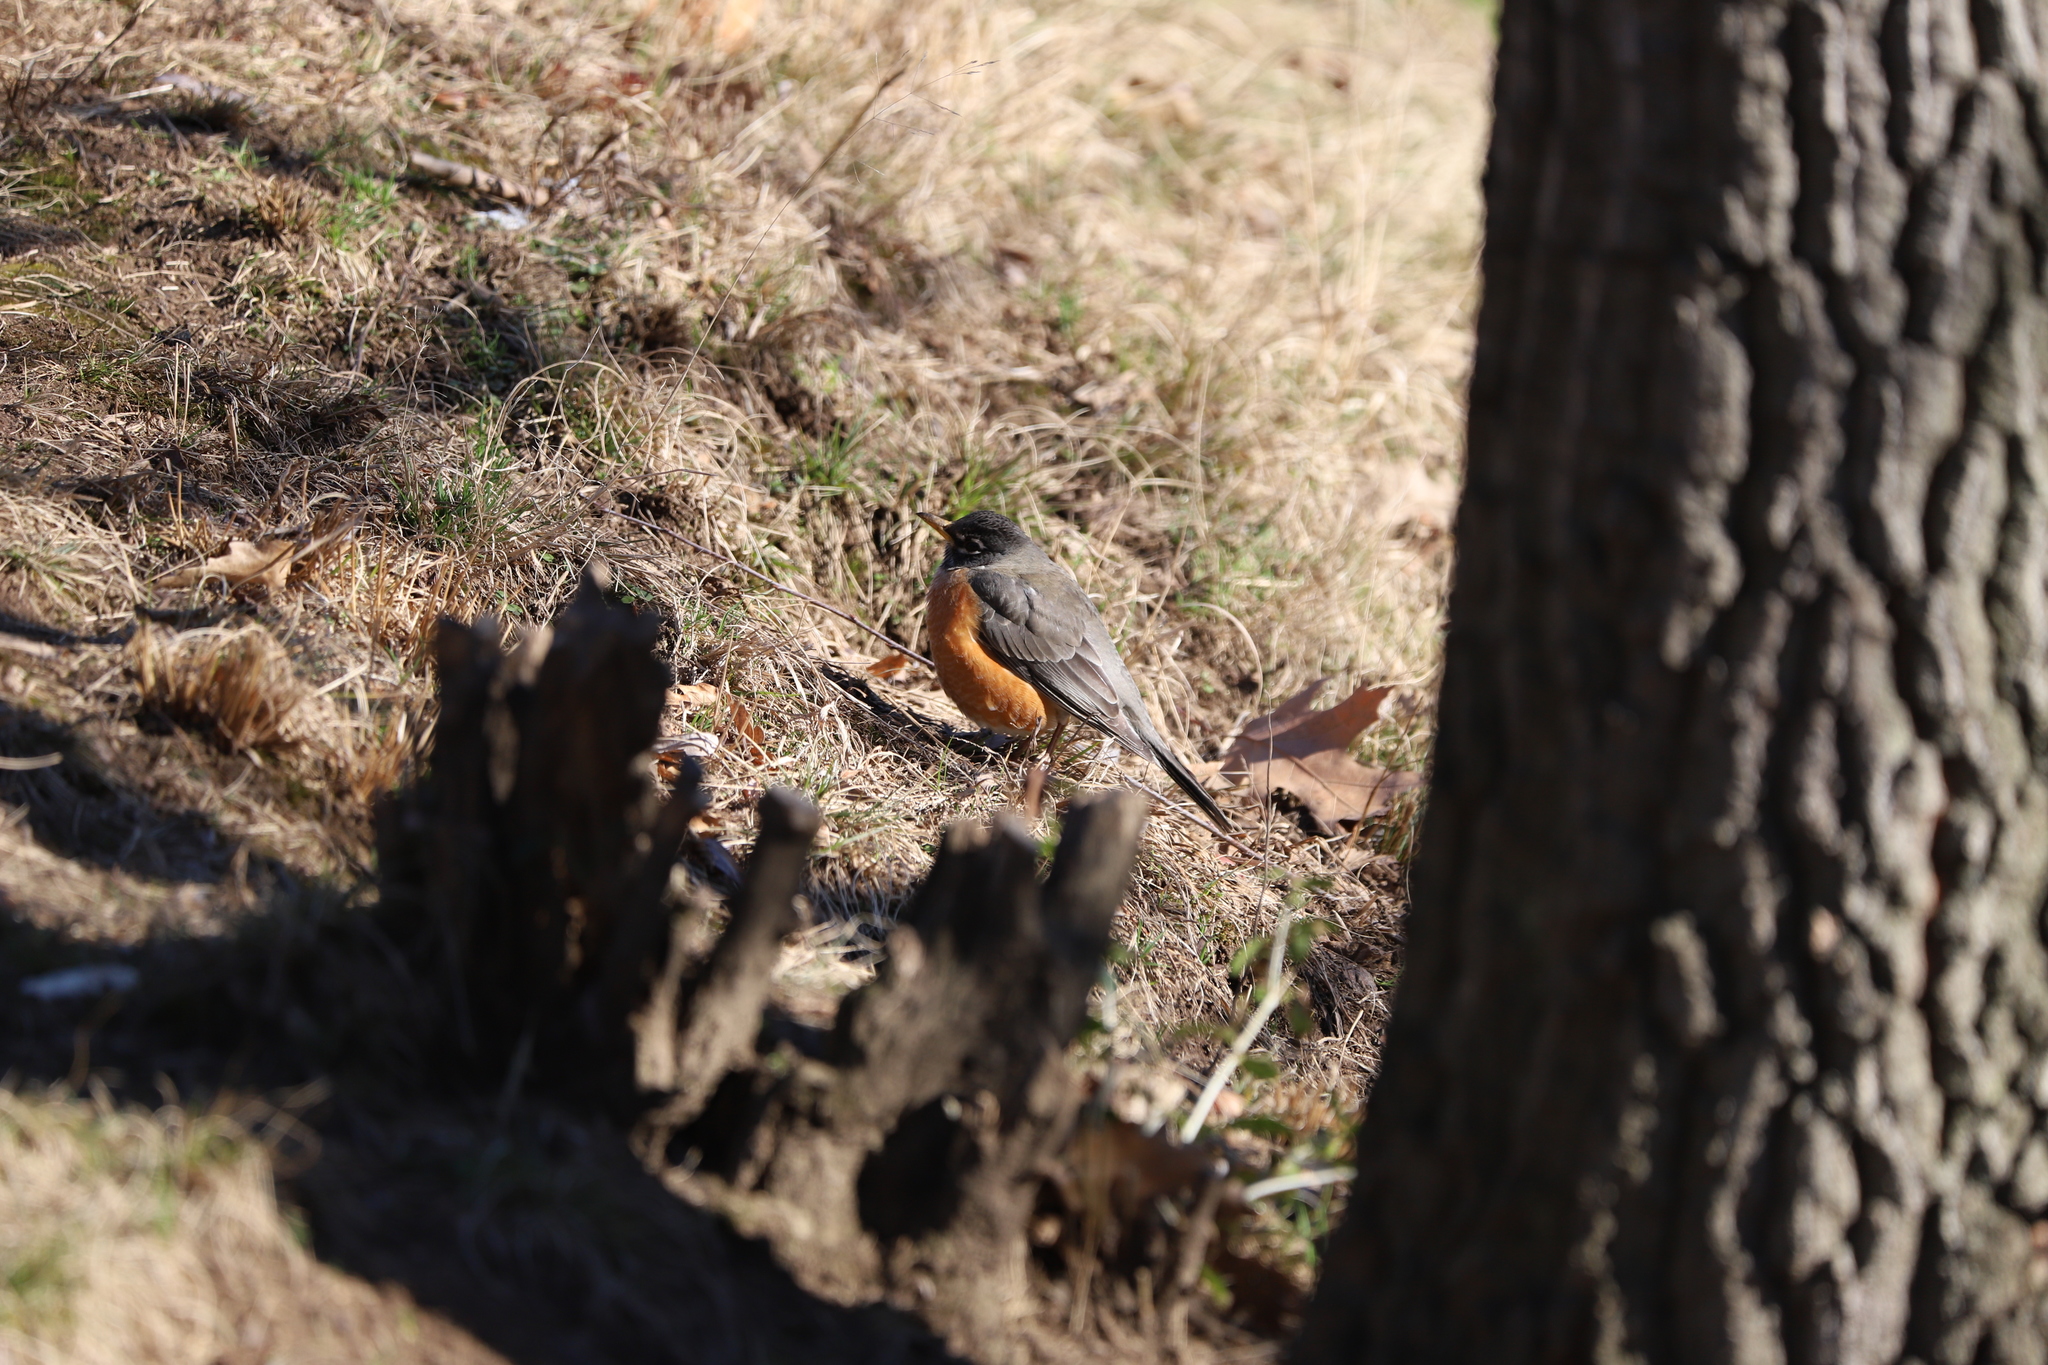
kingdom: Animalia
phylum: Chordata
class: Aves
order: Passeriformes
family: Turdidae
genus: Turdus
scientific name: Turdus migratorius
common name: American robin
